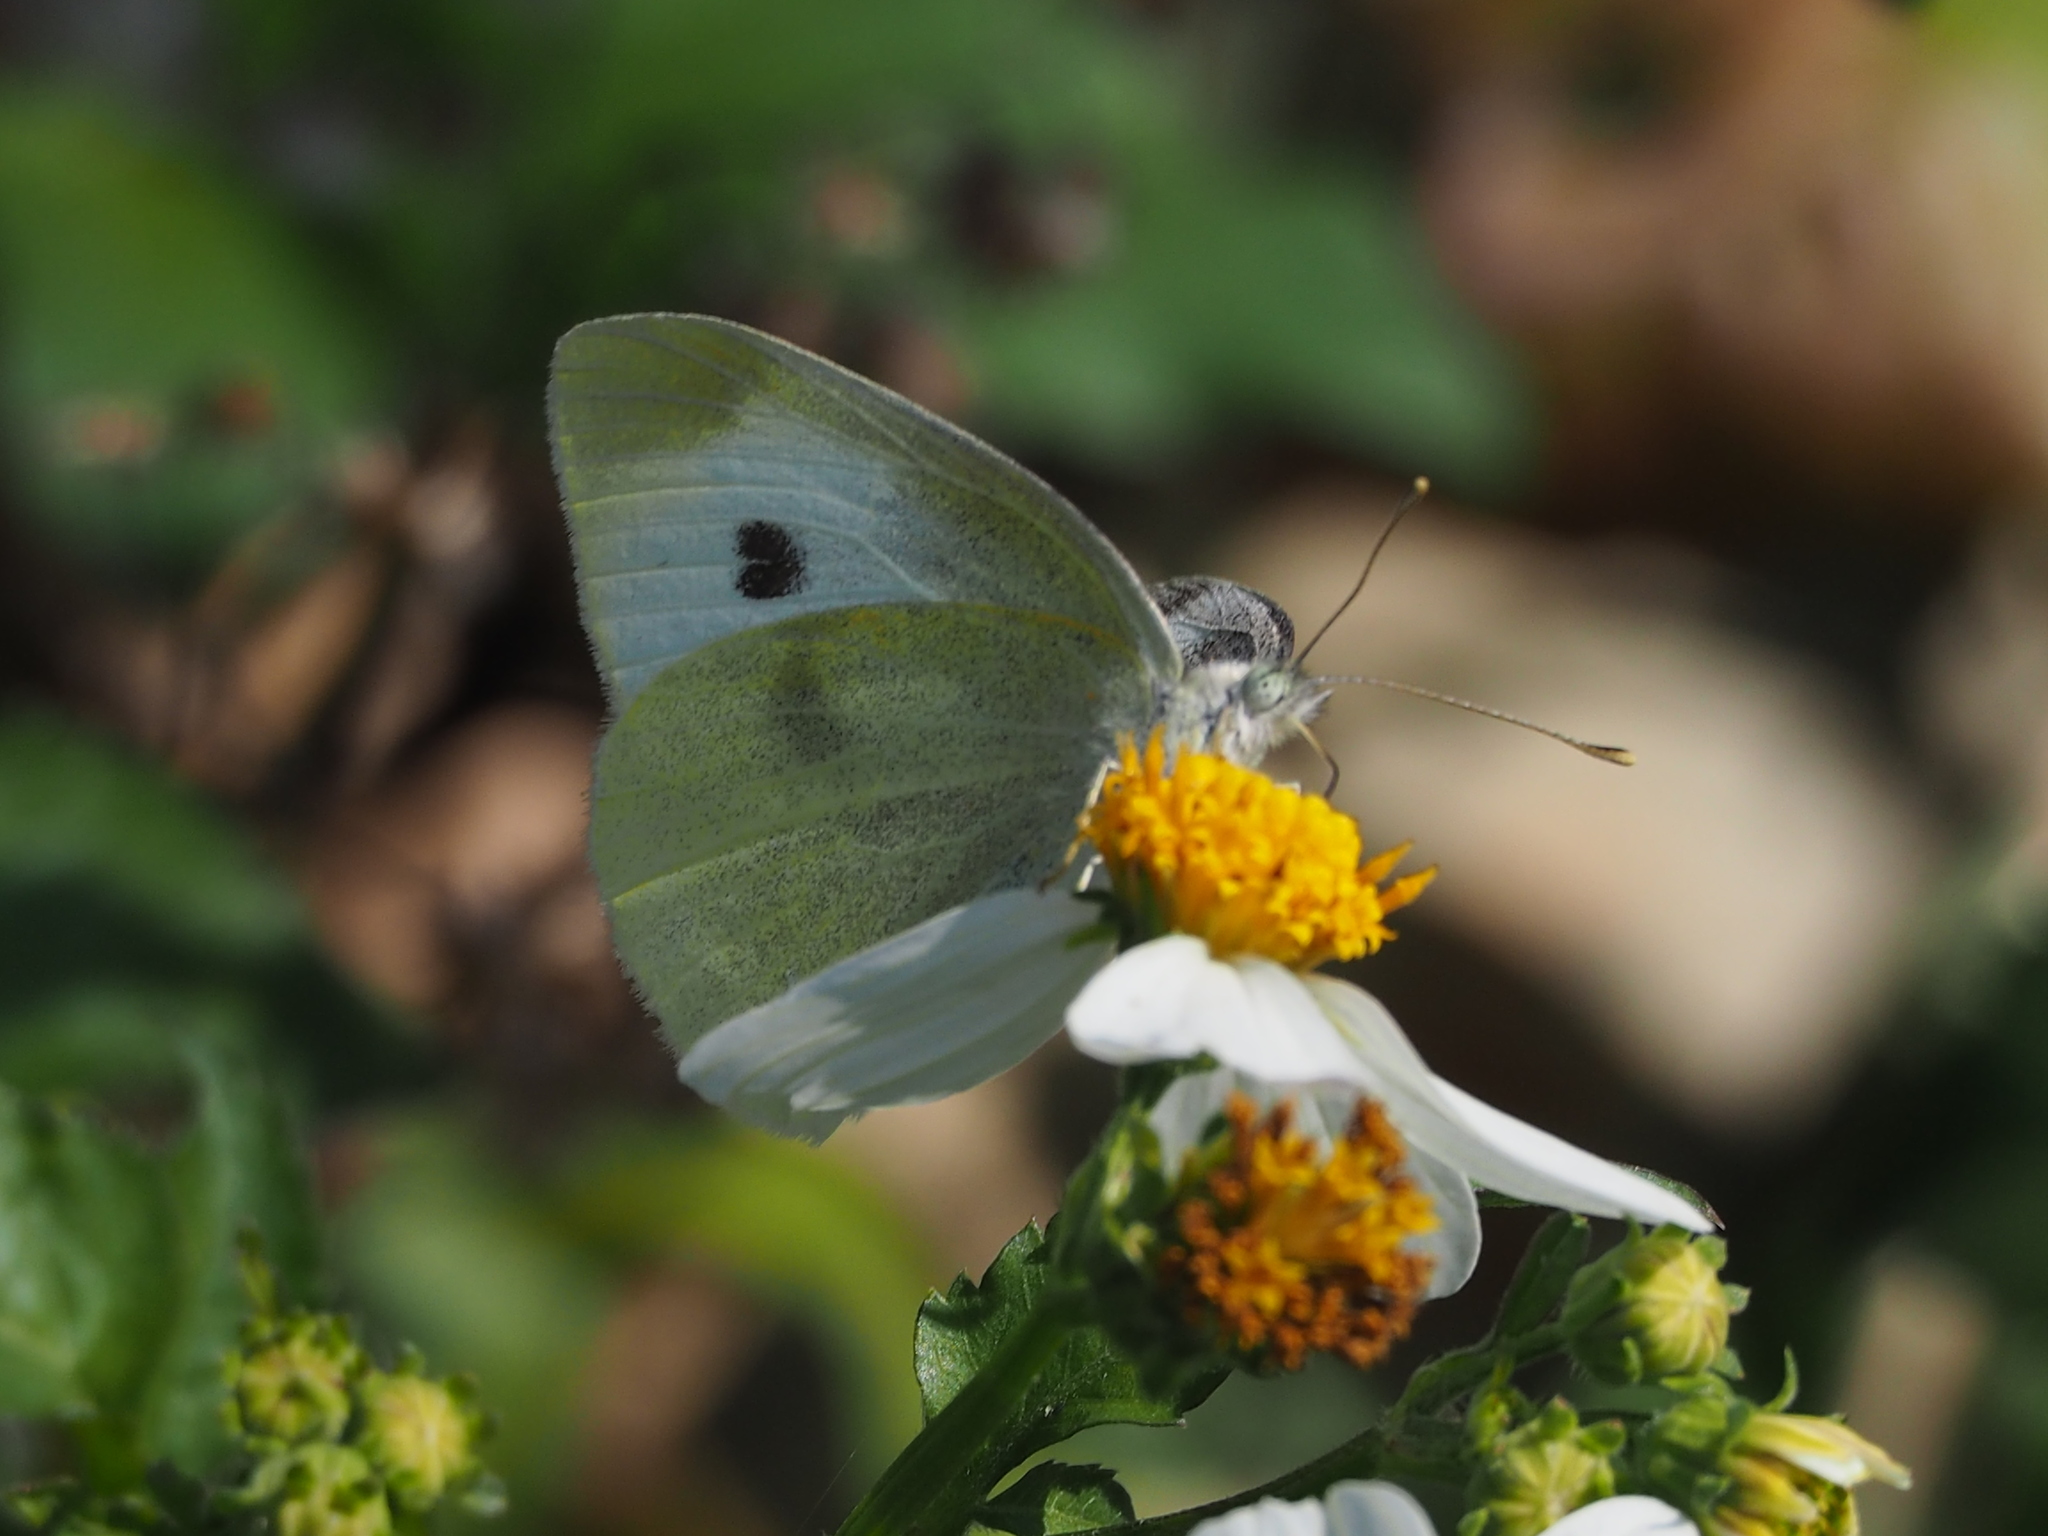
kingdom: Animalia
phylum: Arthropoda
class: Insecta
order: Lepidoptera
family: Pieridae
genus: Pieris
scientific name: Pieris rapae
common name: Small white
